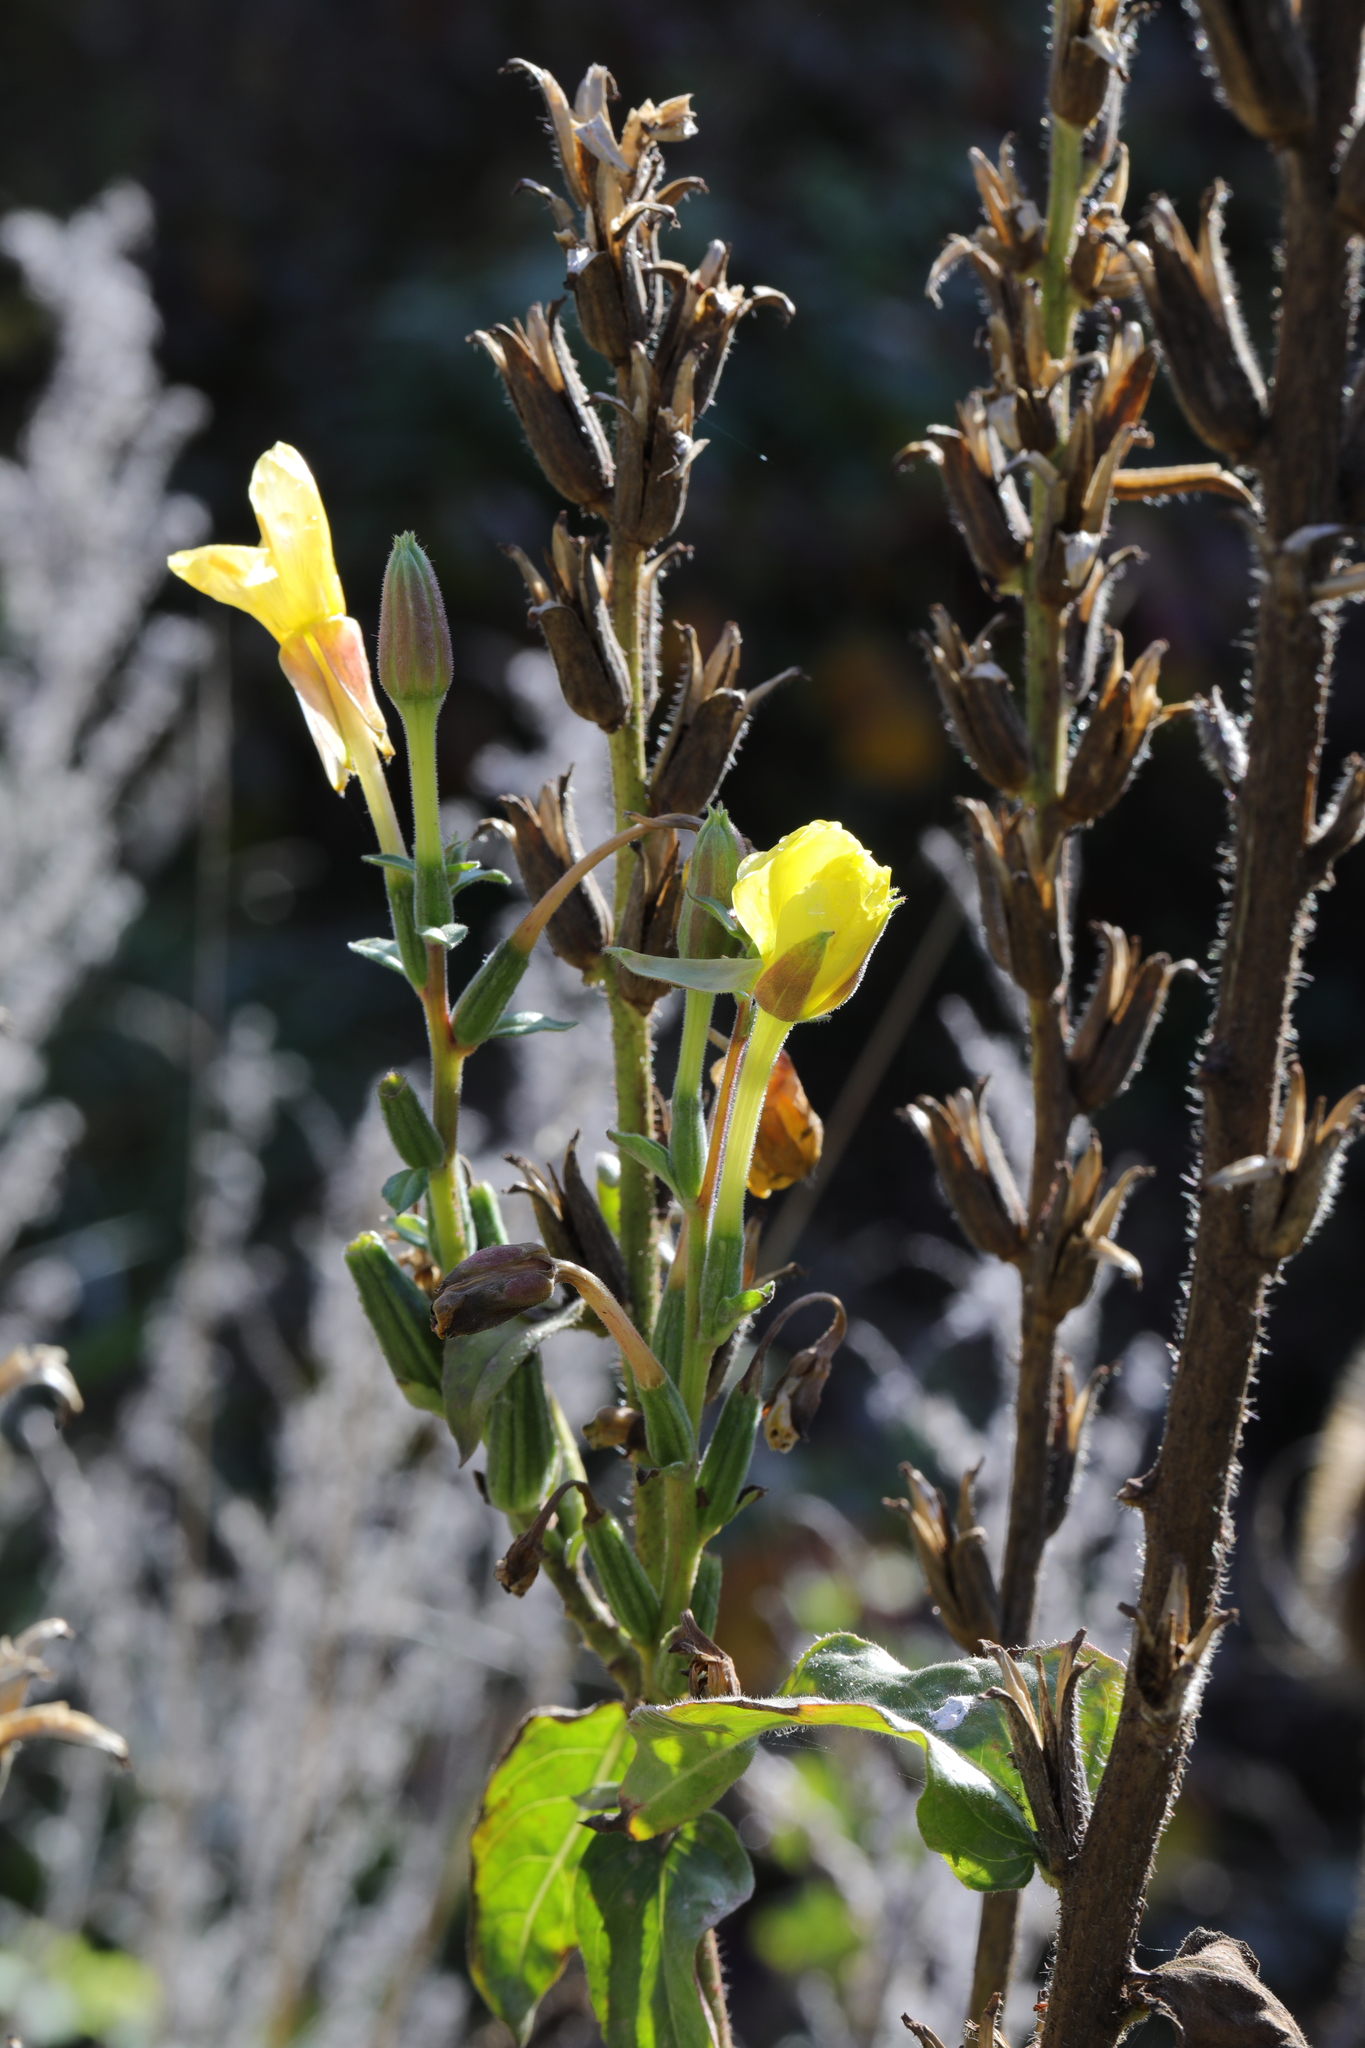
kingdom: Plantae
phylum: Tracheophyta
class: Magnoliopsida
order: Myrtales
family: Onagraceae
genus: Oenothera
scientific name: Oenothera fallax
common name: Intermediate evening-primrose
